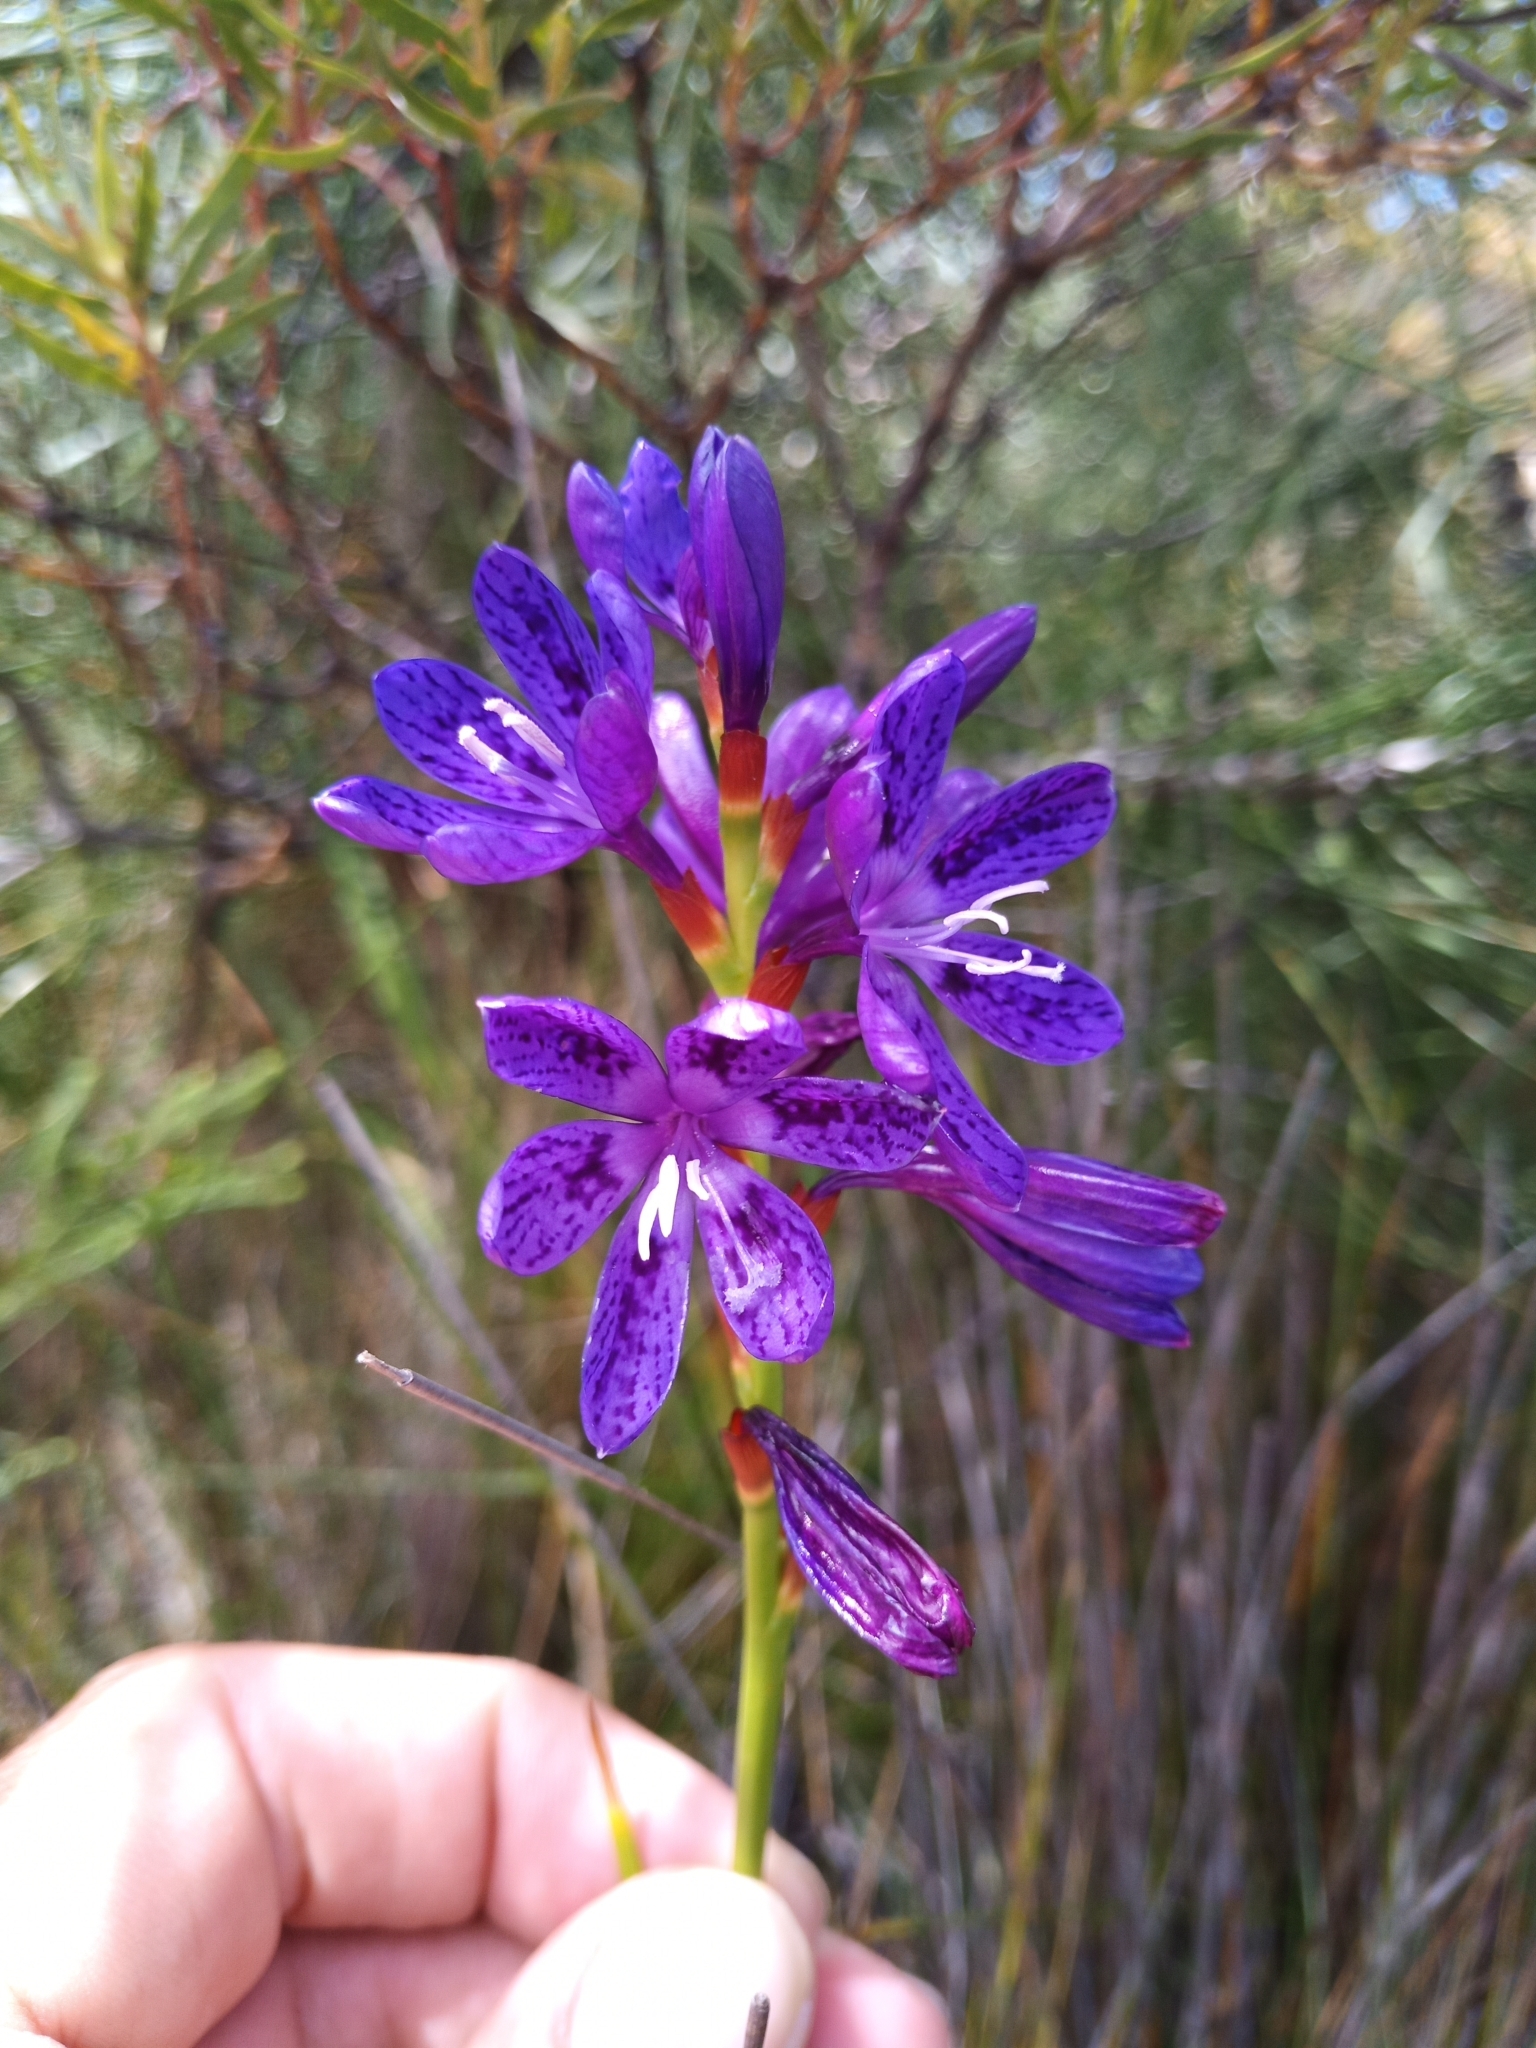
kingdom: Plantae
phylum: Tracheophyta
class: Liliopsida
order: Asparagales
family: Iridaceae
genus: Thereianthus
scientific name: Thereianthus bracteolatus
